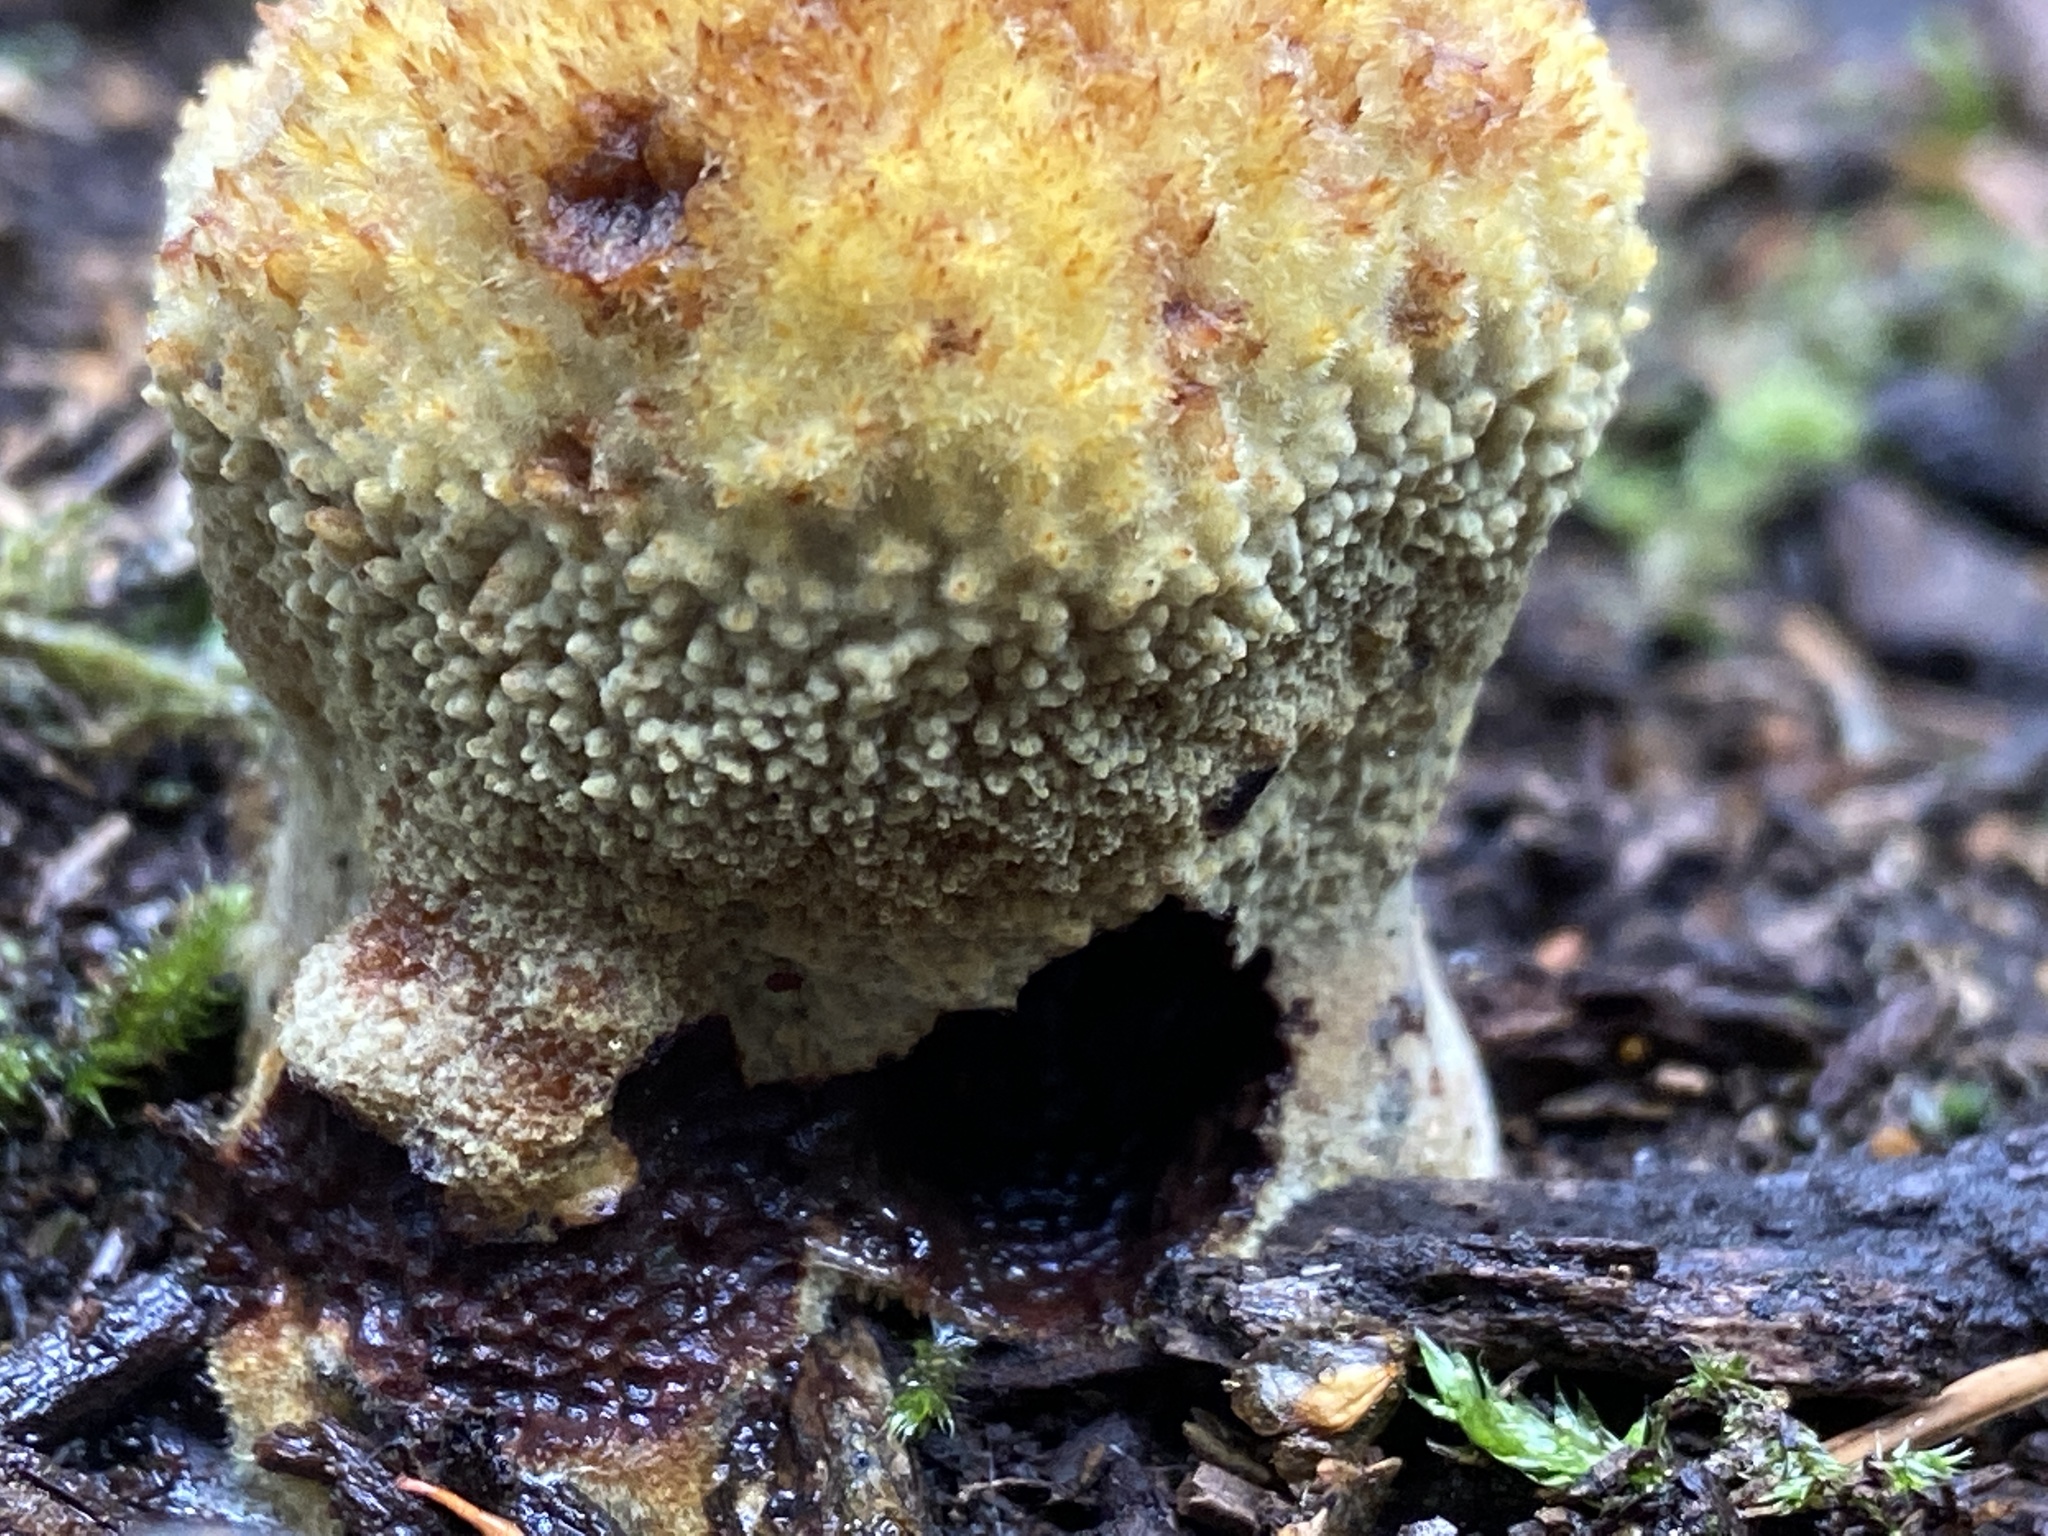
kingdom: Fungi
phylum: Basidiomycota
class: Agaricomycetes
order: Polyporales
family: Laetiporaceae
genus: Phaeolus
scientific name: Phaeolus schweinitzii
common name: Dyer's mazegill
